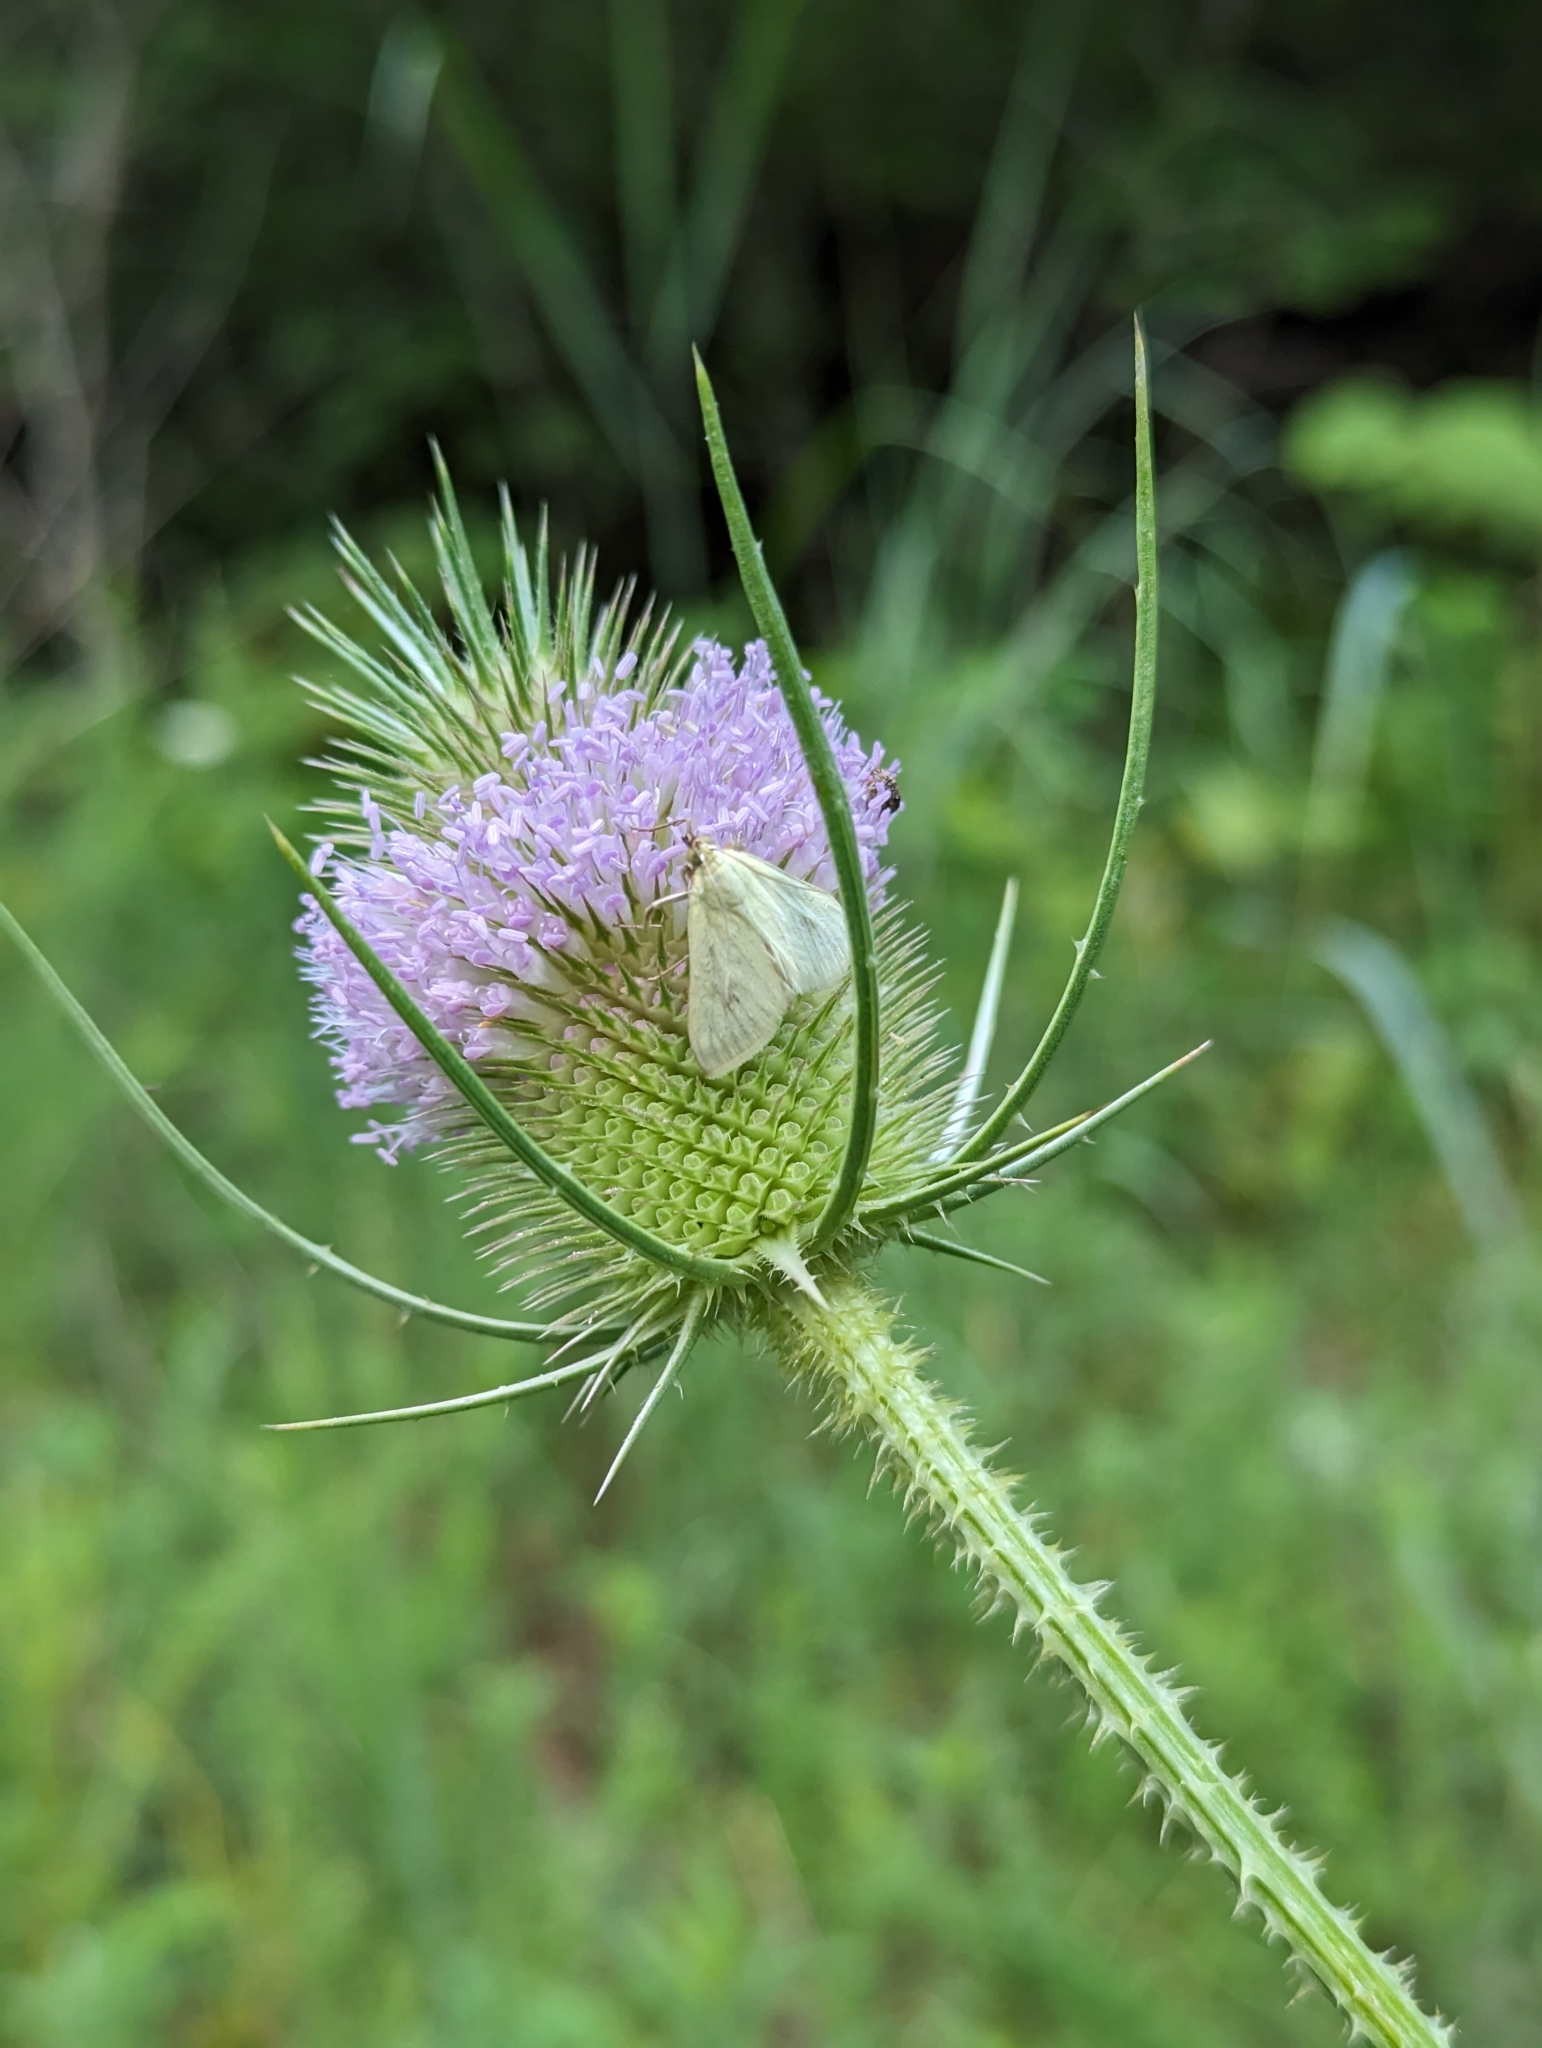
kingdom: Animalia
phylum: Arthropoda
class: Insecta
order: Lepidoptera
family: Crambidae
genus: Sitochroa
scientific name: Sitochroa palealis
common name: Greenish-yellow sitochroa moth
